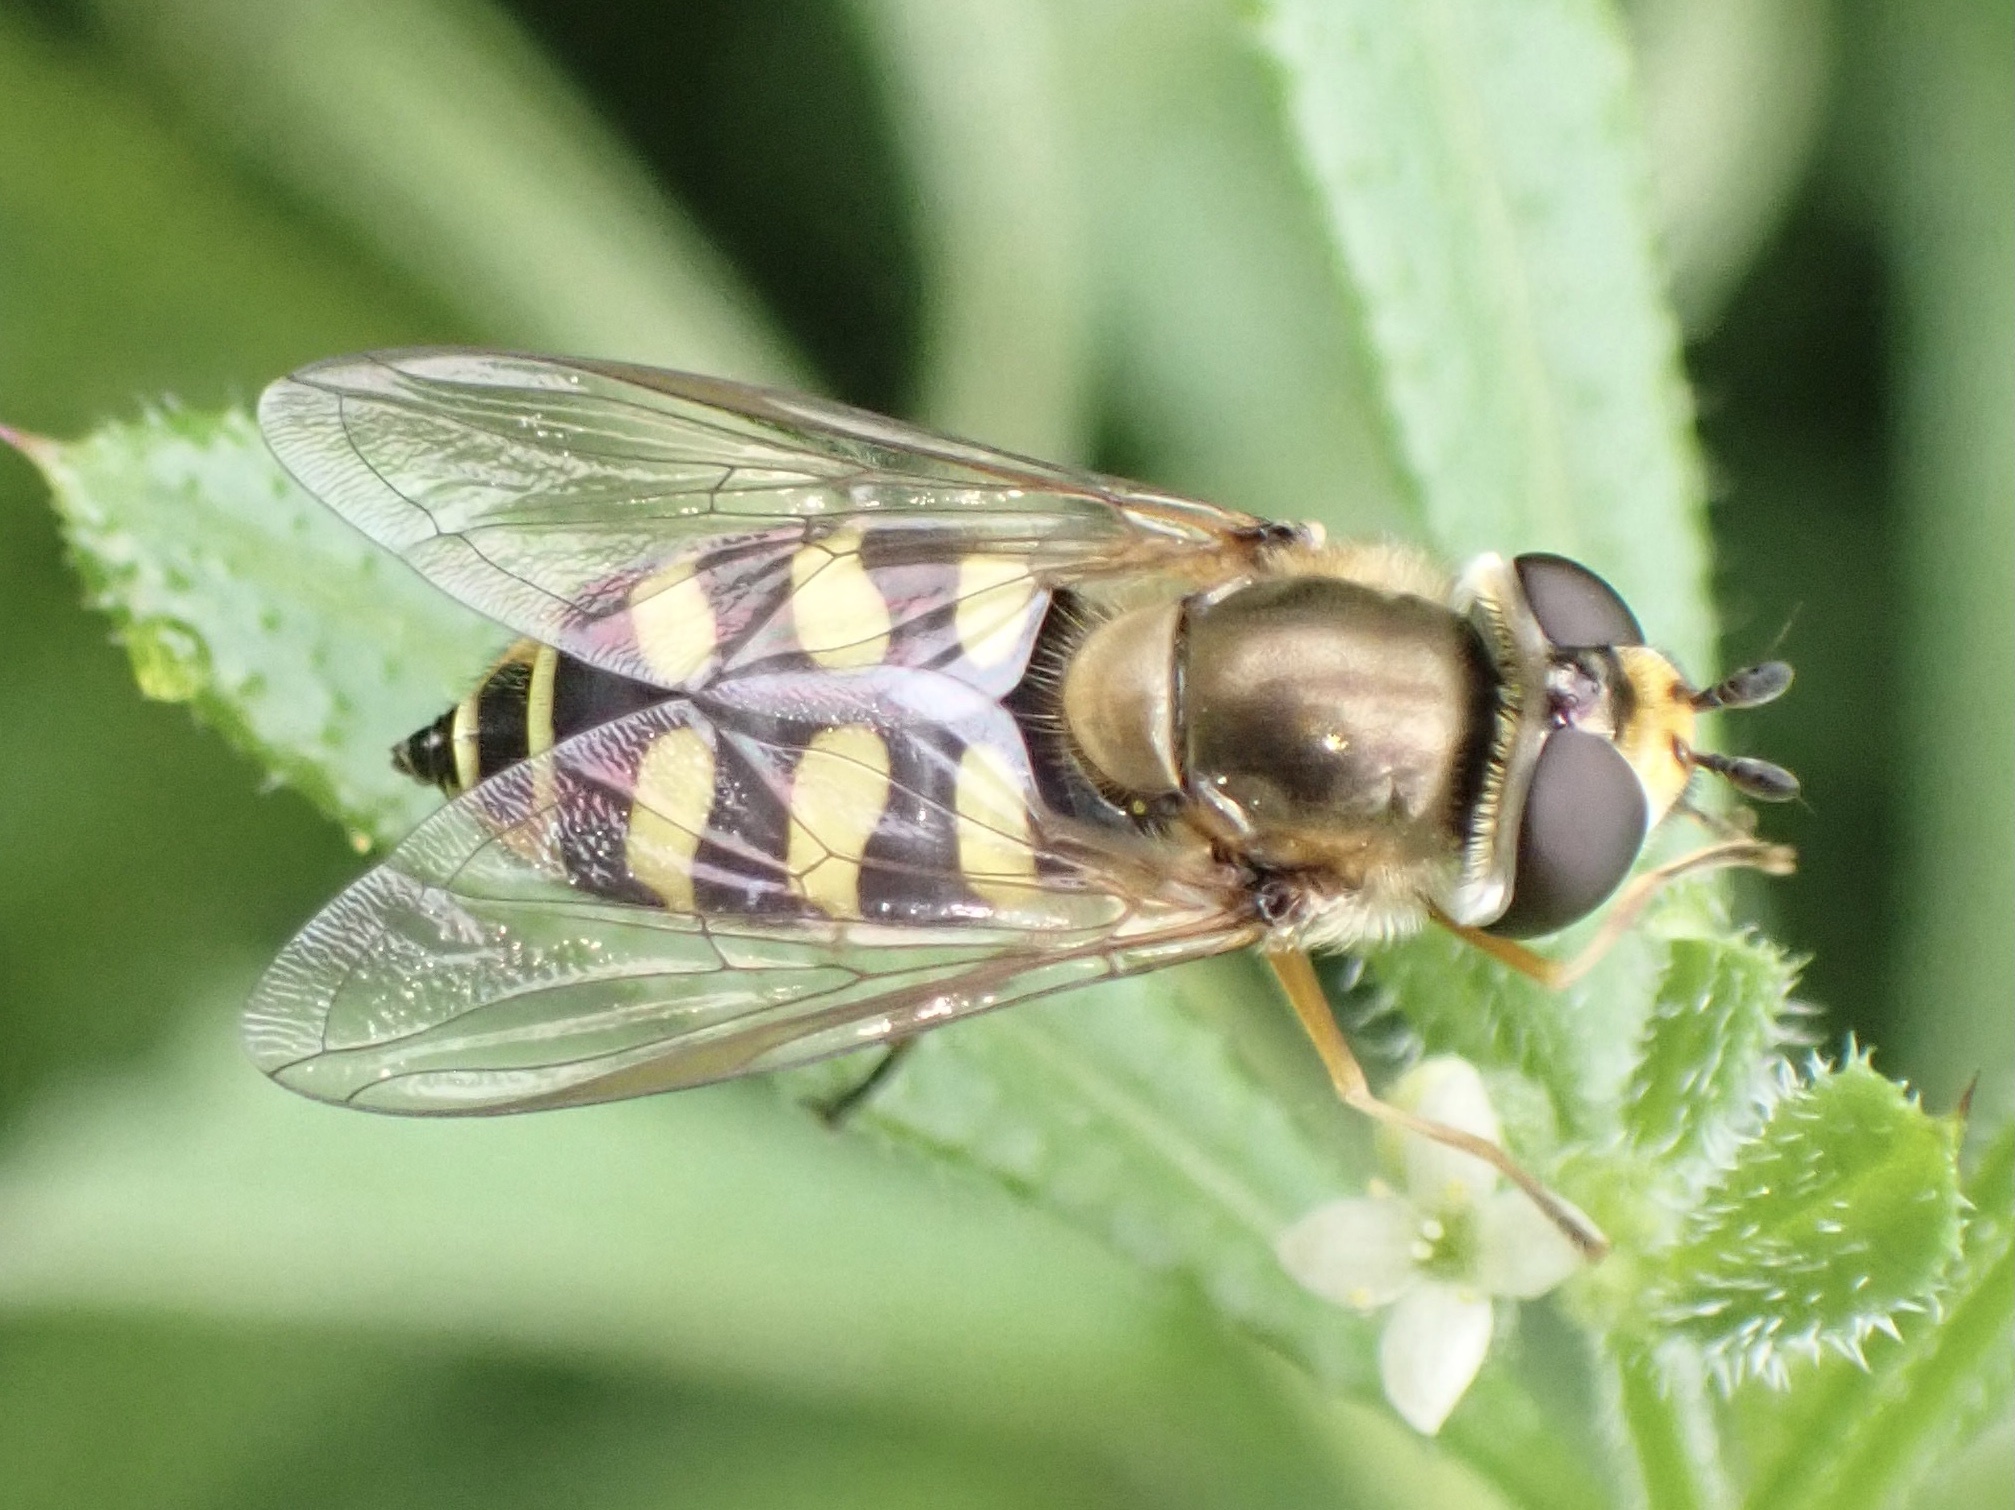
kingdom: Animalia
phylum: Arthropoda
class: Insecta
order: Diptera
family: Syrphidae
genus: Eupeodes
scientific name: Eupeodes corollae
